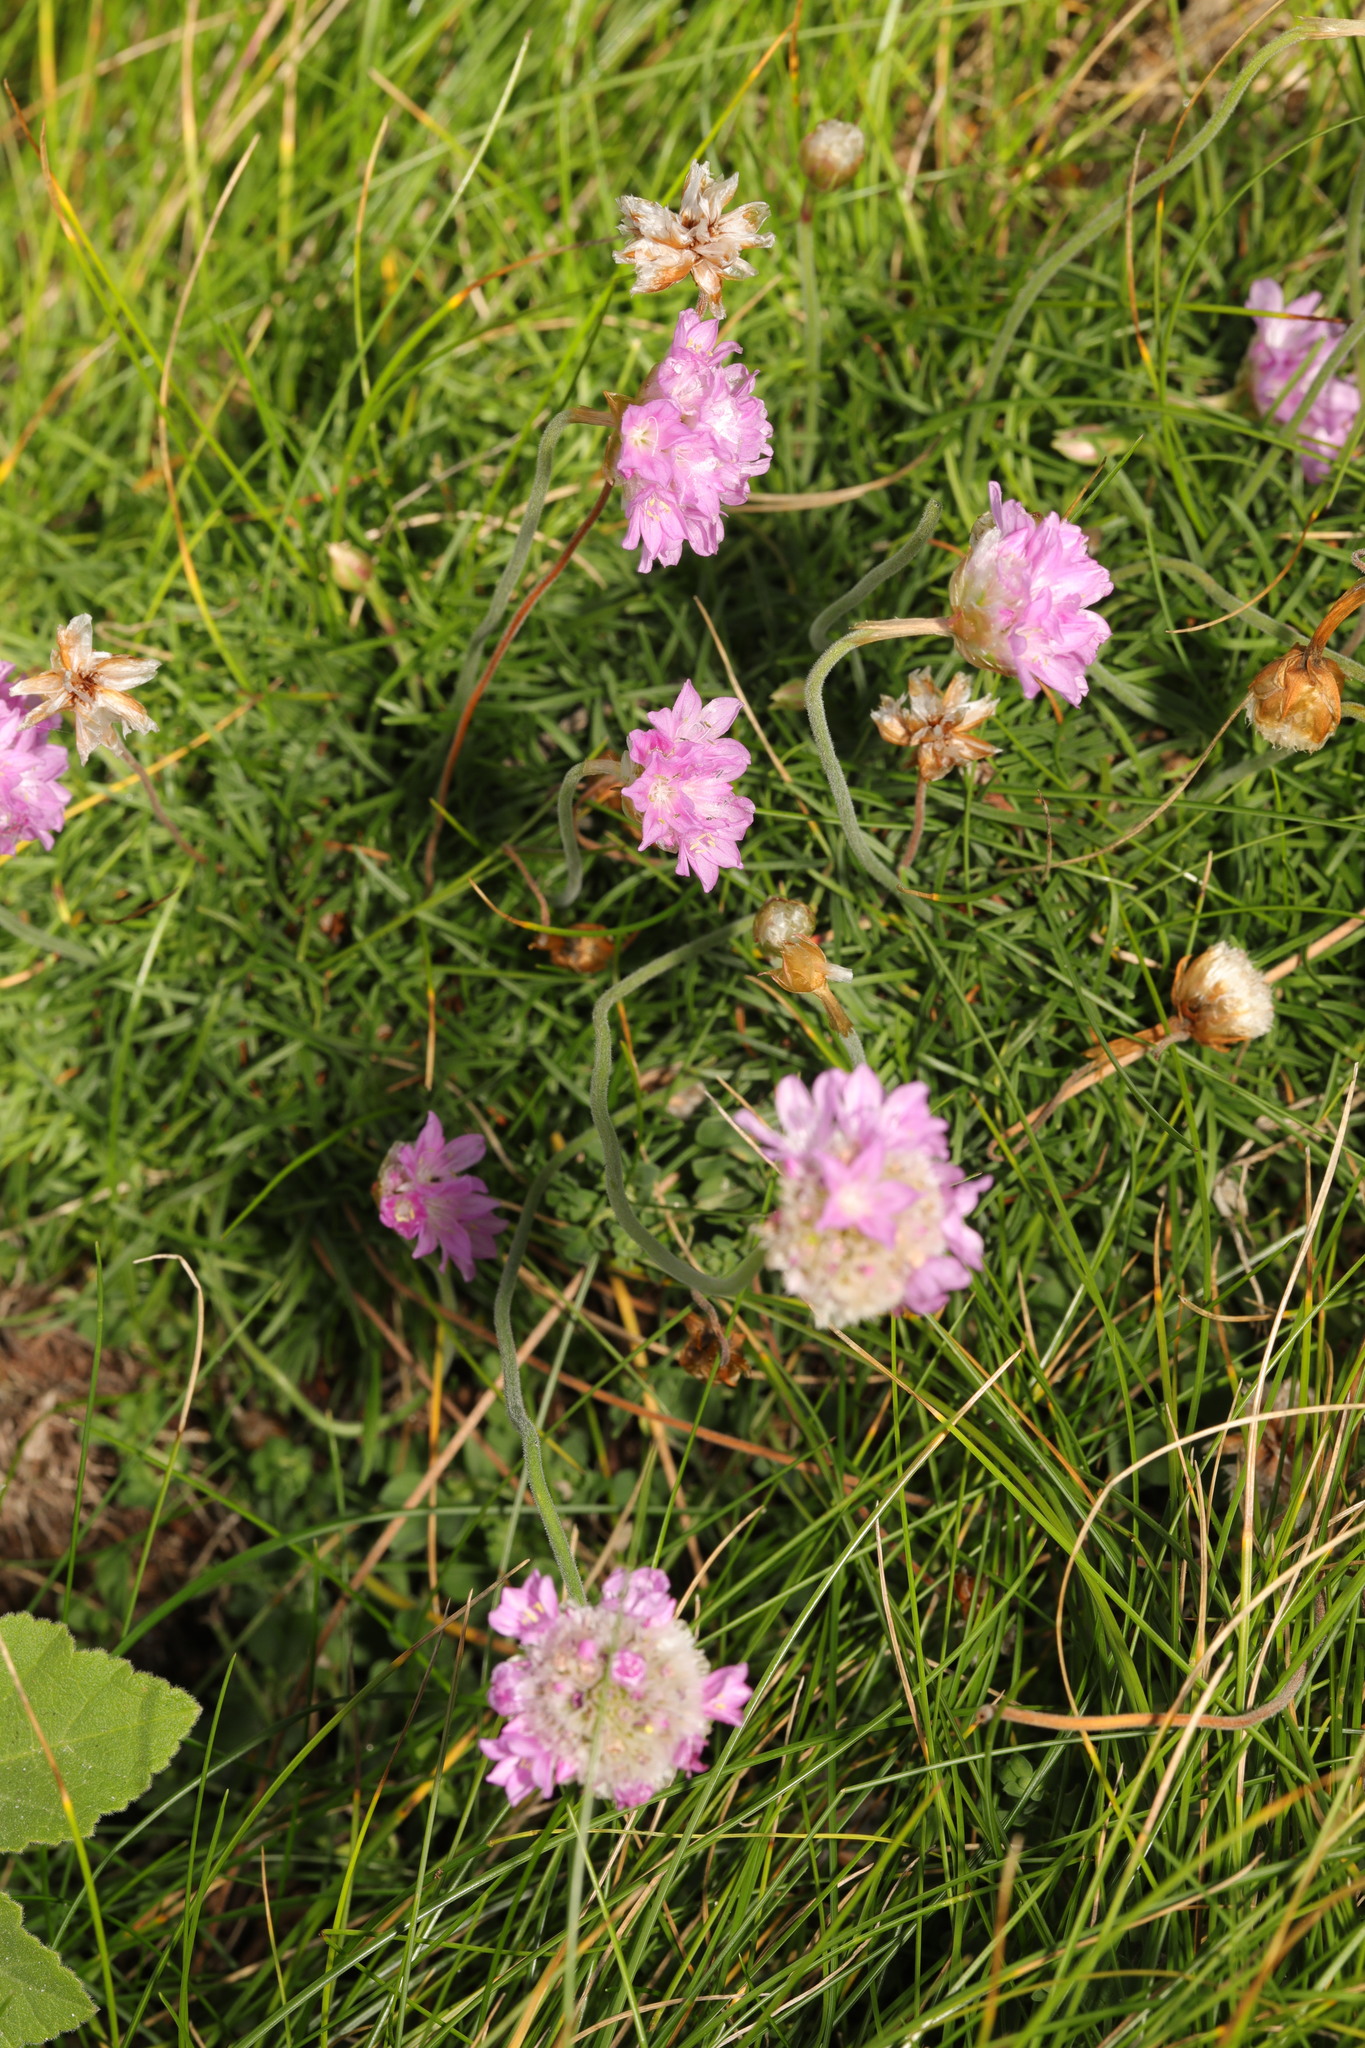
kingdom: Plantae
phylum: Tracheophyta
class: Magnoliopsida
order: Caryophyllales
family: Plumbaginaceae
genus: Armeria
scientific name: Armeria maritima
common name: Thrift
